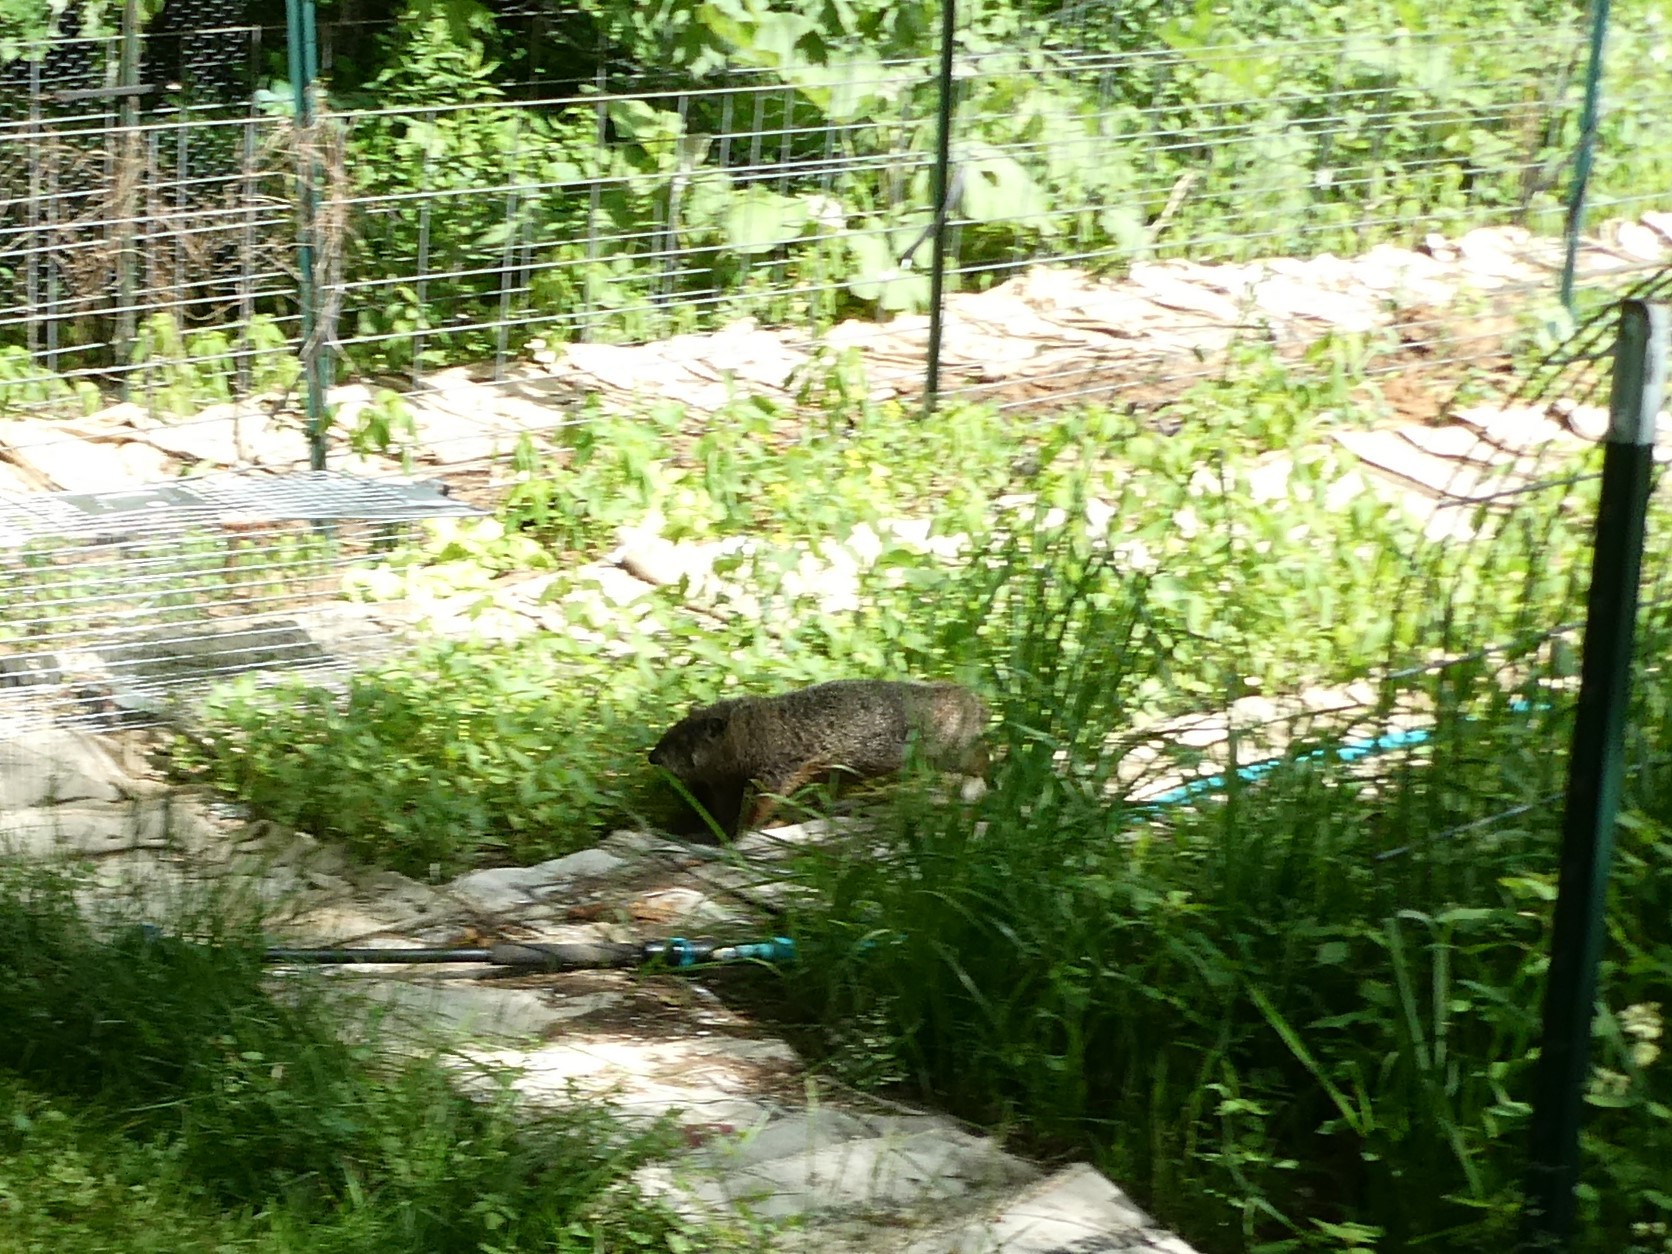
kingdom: Animalia
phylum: Chordata
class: Mammalia
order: Rodentia
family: Sciuridae
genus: Marmota
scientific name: Marmota monax
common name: Groundhog
